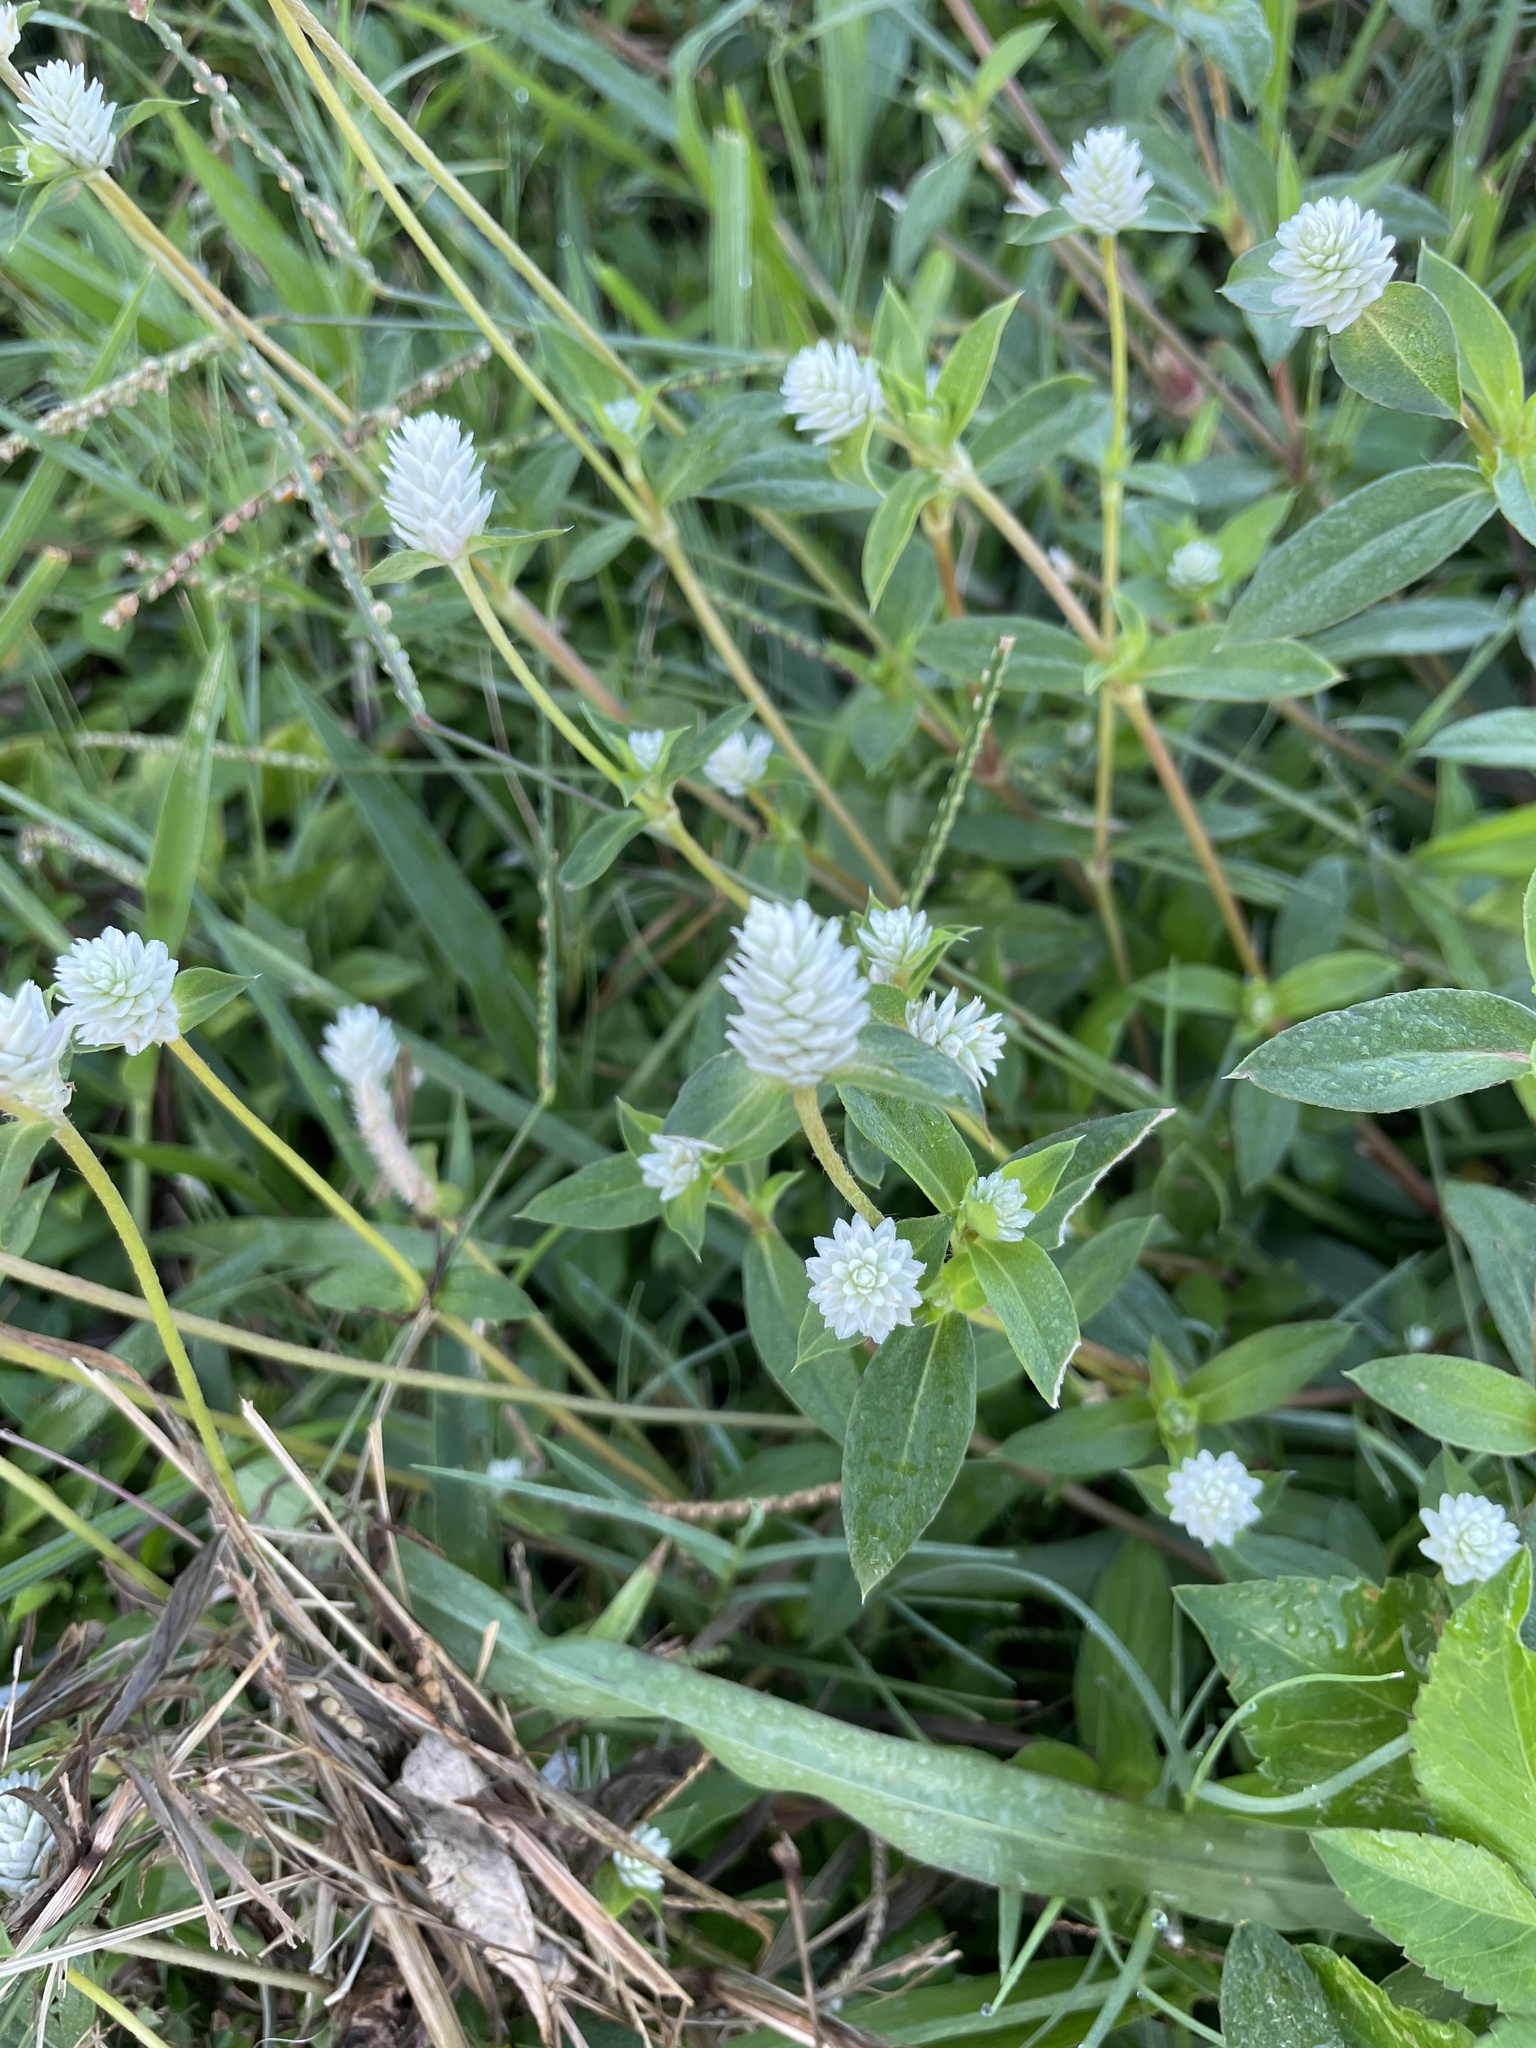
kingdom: Plantae
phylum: Tracheophyta
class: Magnoliopsida
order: Caryophyllales
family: Amaranthaceae
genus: Gomphrena
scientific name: Gomphrena serrata
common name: Arrasa con todo
